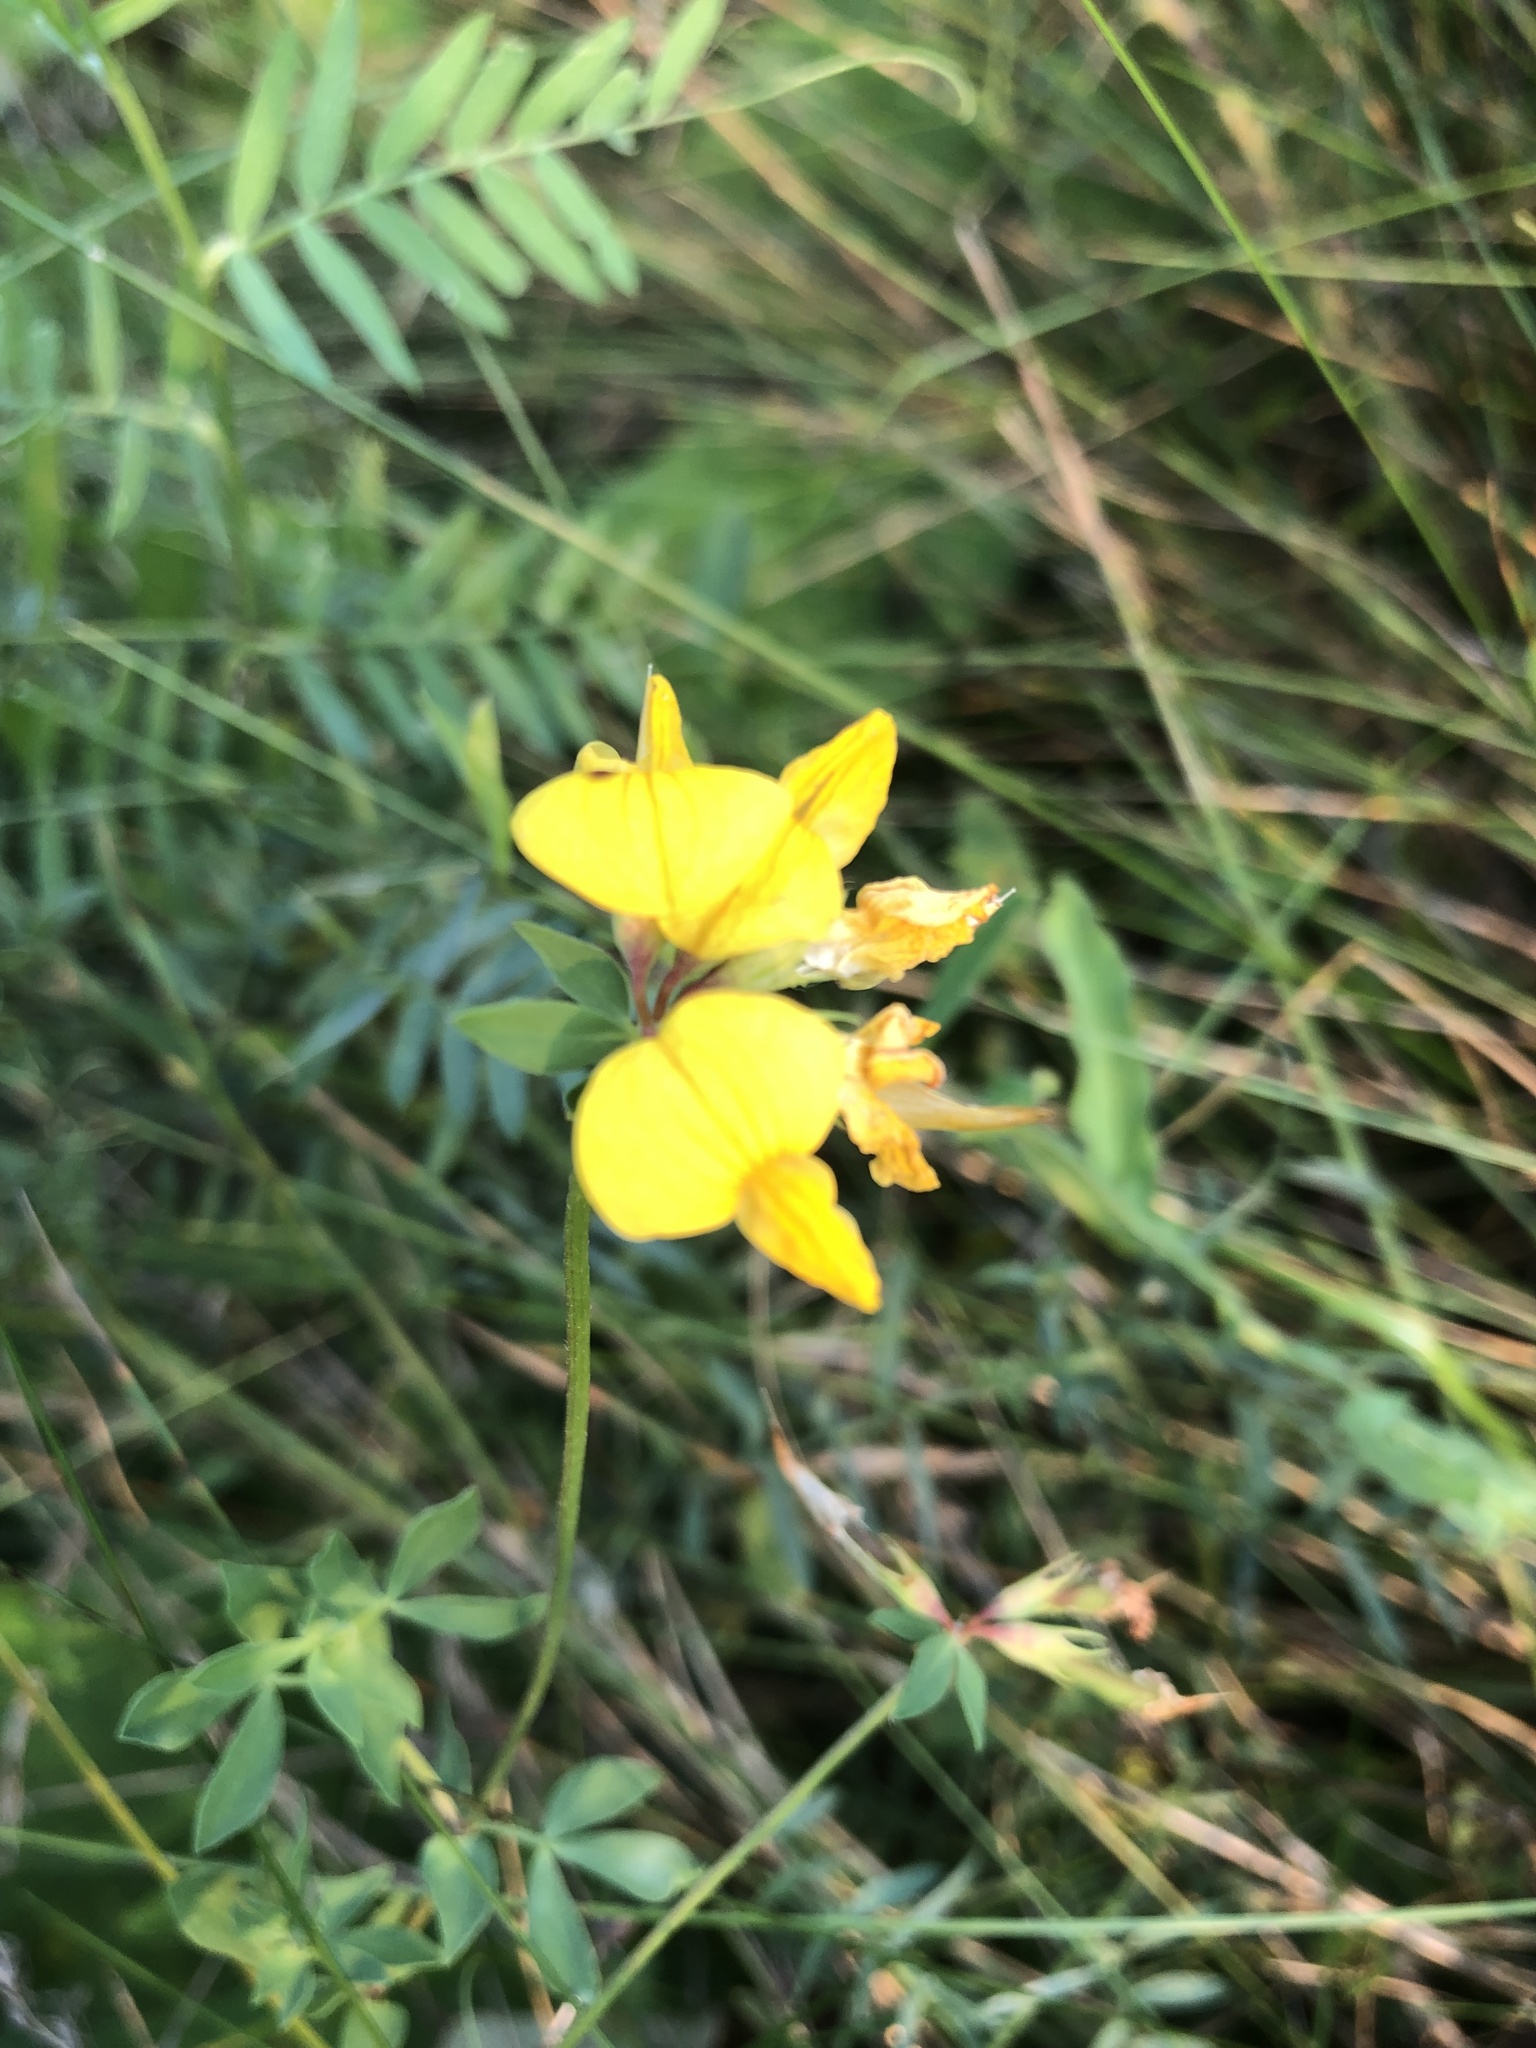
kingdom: Plantae
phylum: Tracheophyta
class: Magnoliopsida
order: Fabales
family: Fabaceae
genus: Lotus
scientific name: Lotus corniculatus
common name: Common bird's-foot-trefoil
